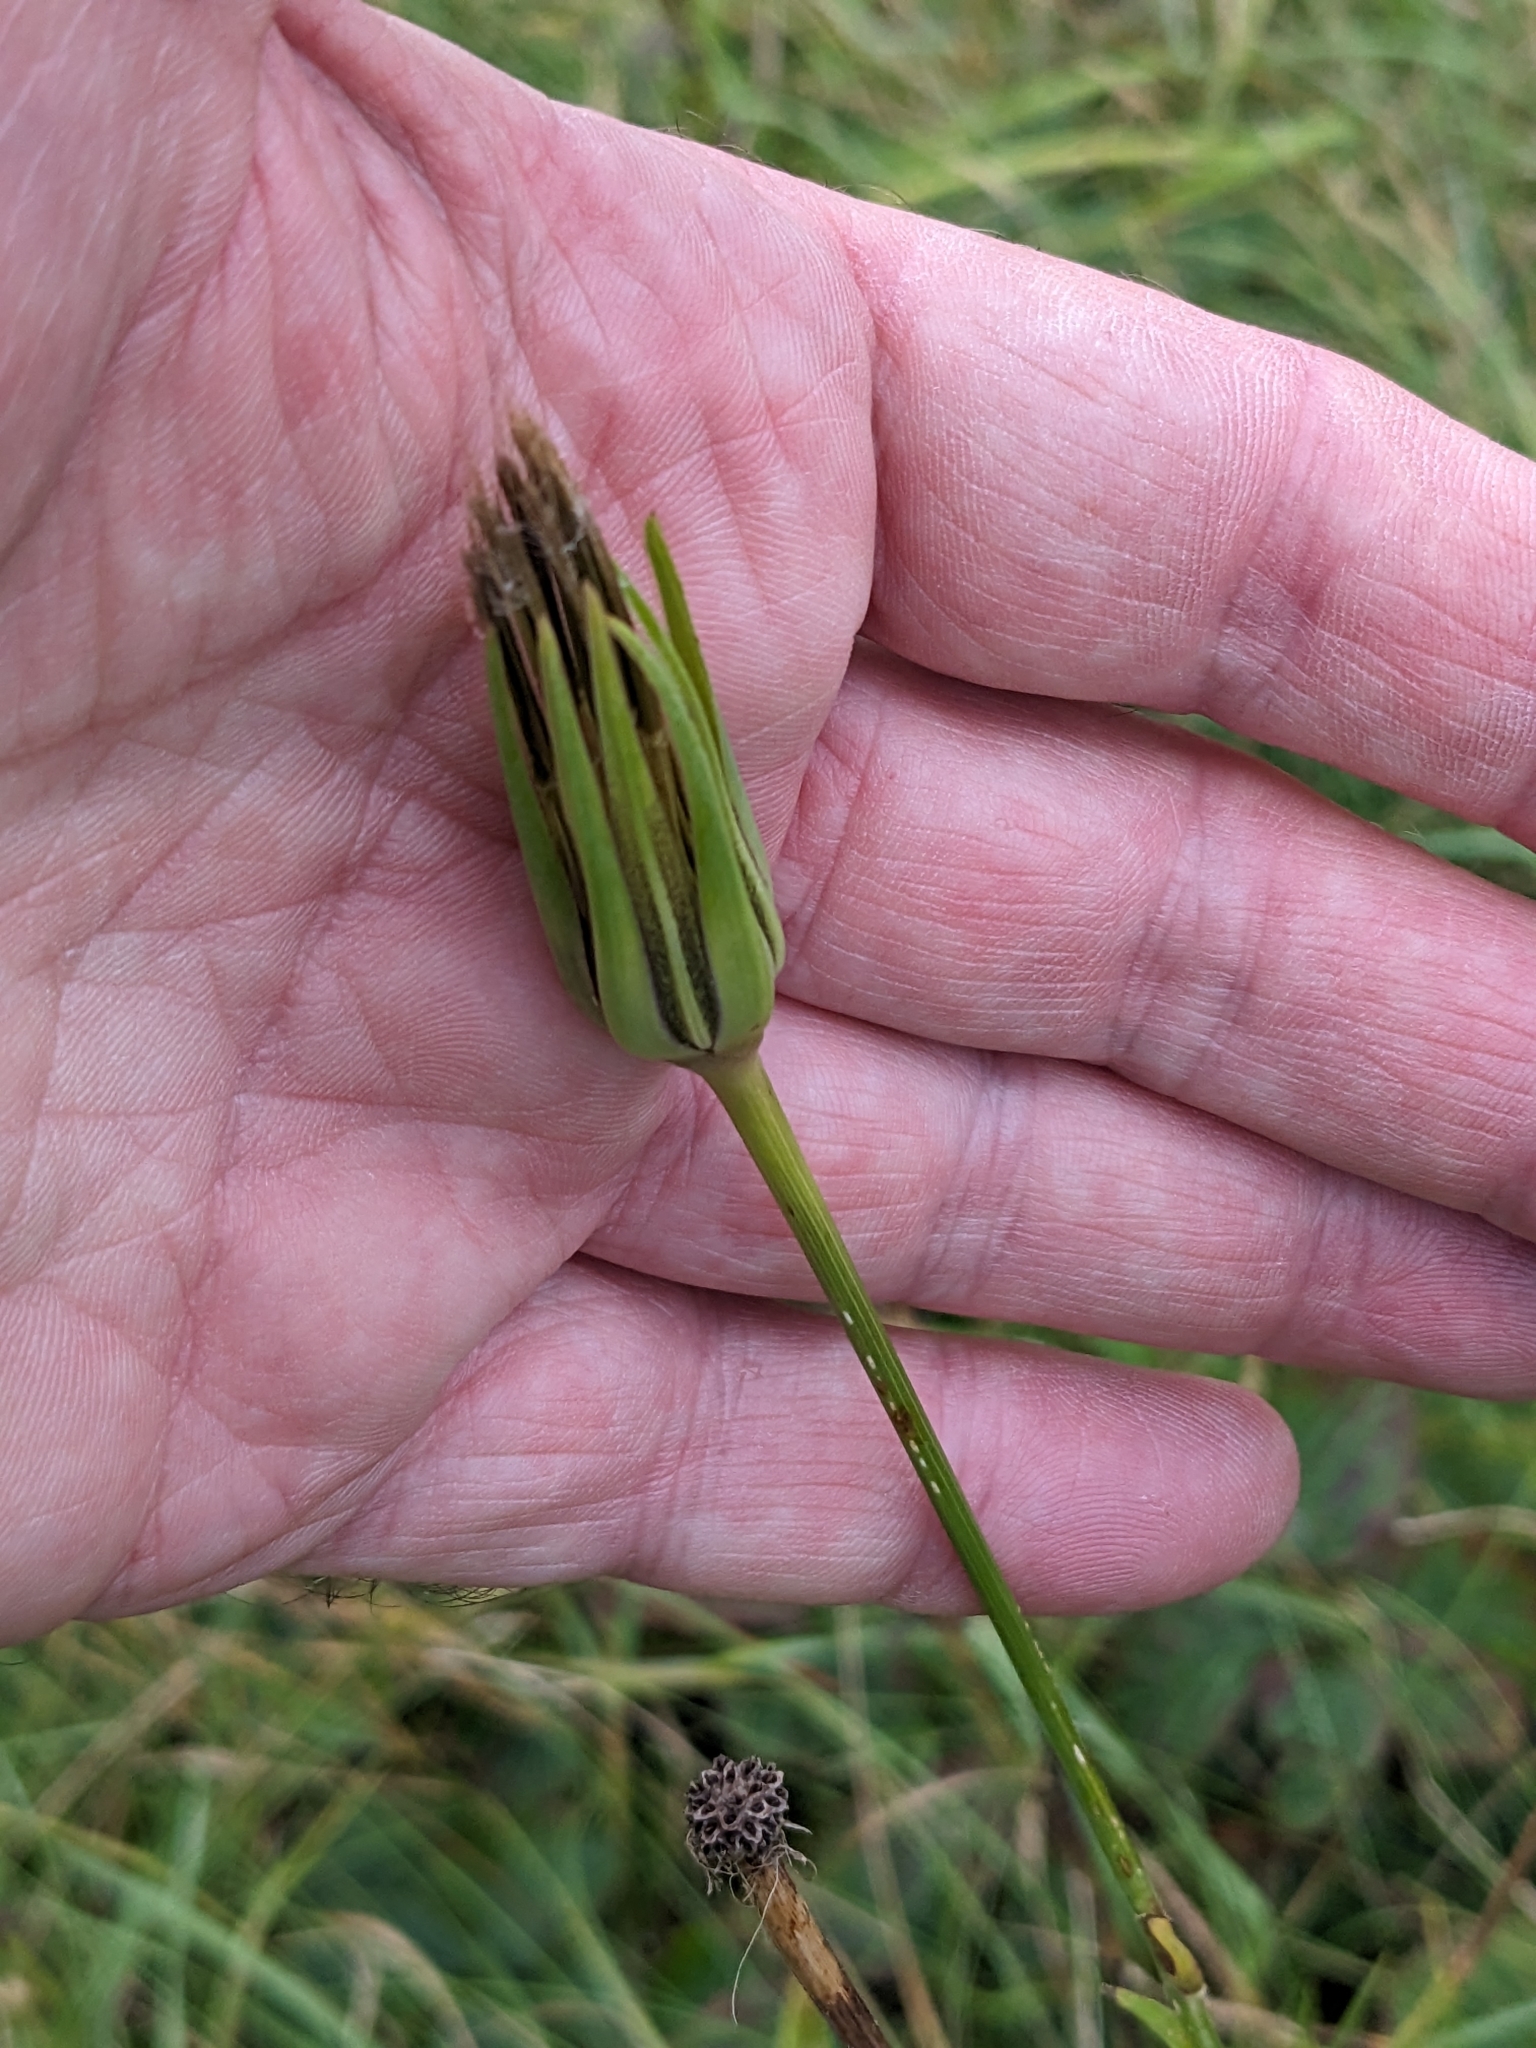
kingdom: Plantae
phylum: Tracheophyta
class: Magnoliopsida
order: Asterales
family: Asteraceae
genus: Tragopogon
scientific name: Tragopogon pratensis
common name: Goat's-beard
